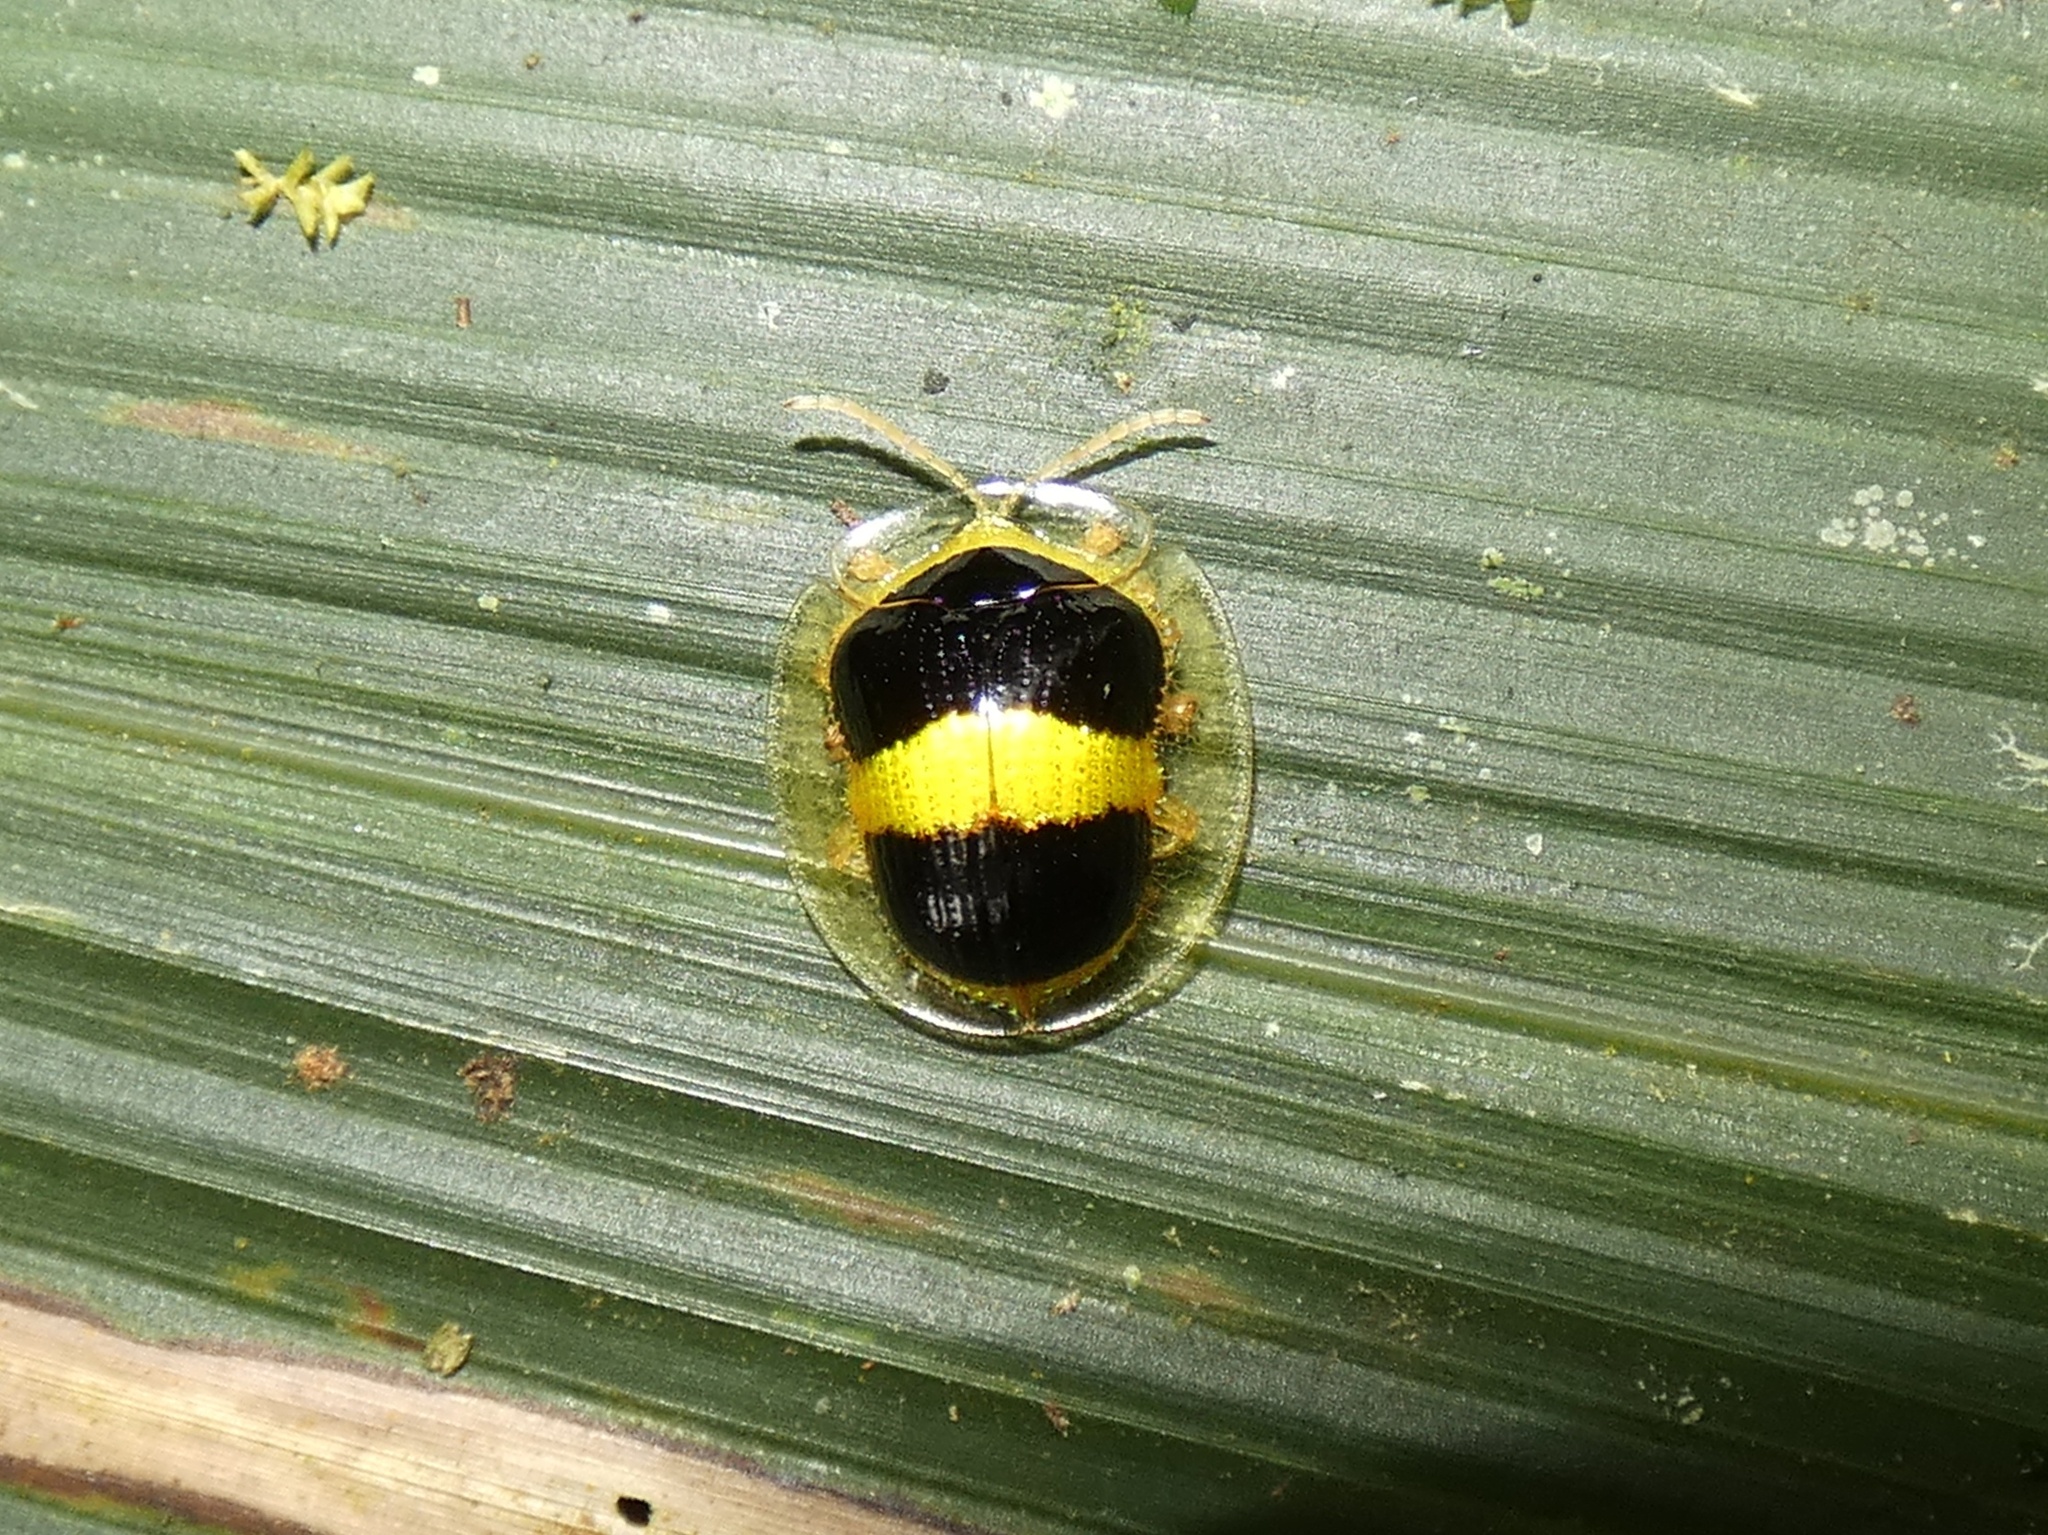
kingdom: Animalia
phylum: Arthropoda
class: Insecta
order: Coleoptera
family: Chrysomelidae
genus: Charidotis
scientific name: Charidotis leprieuri
